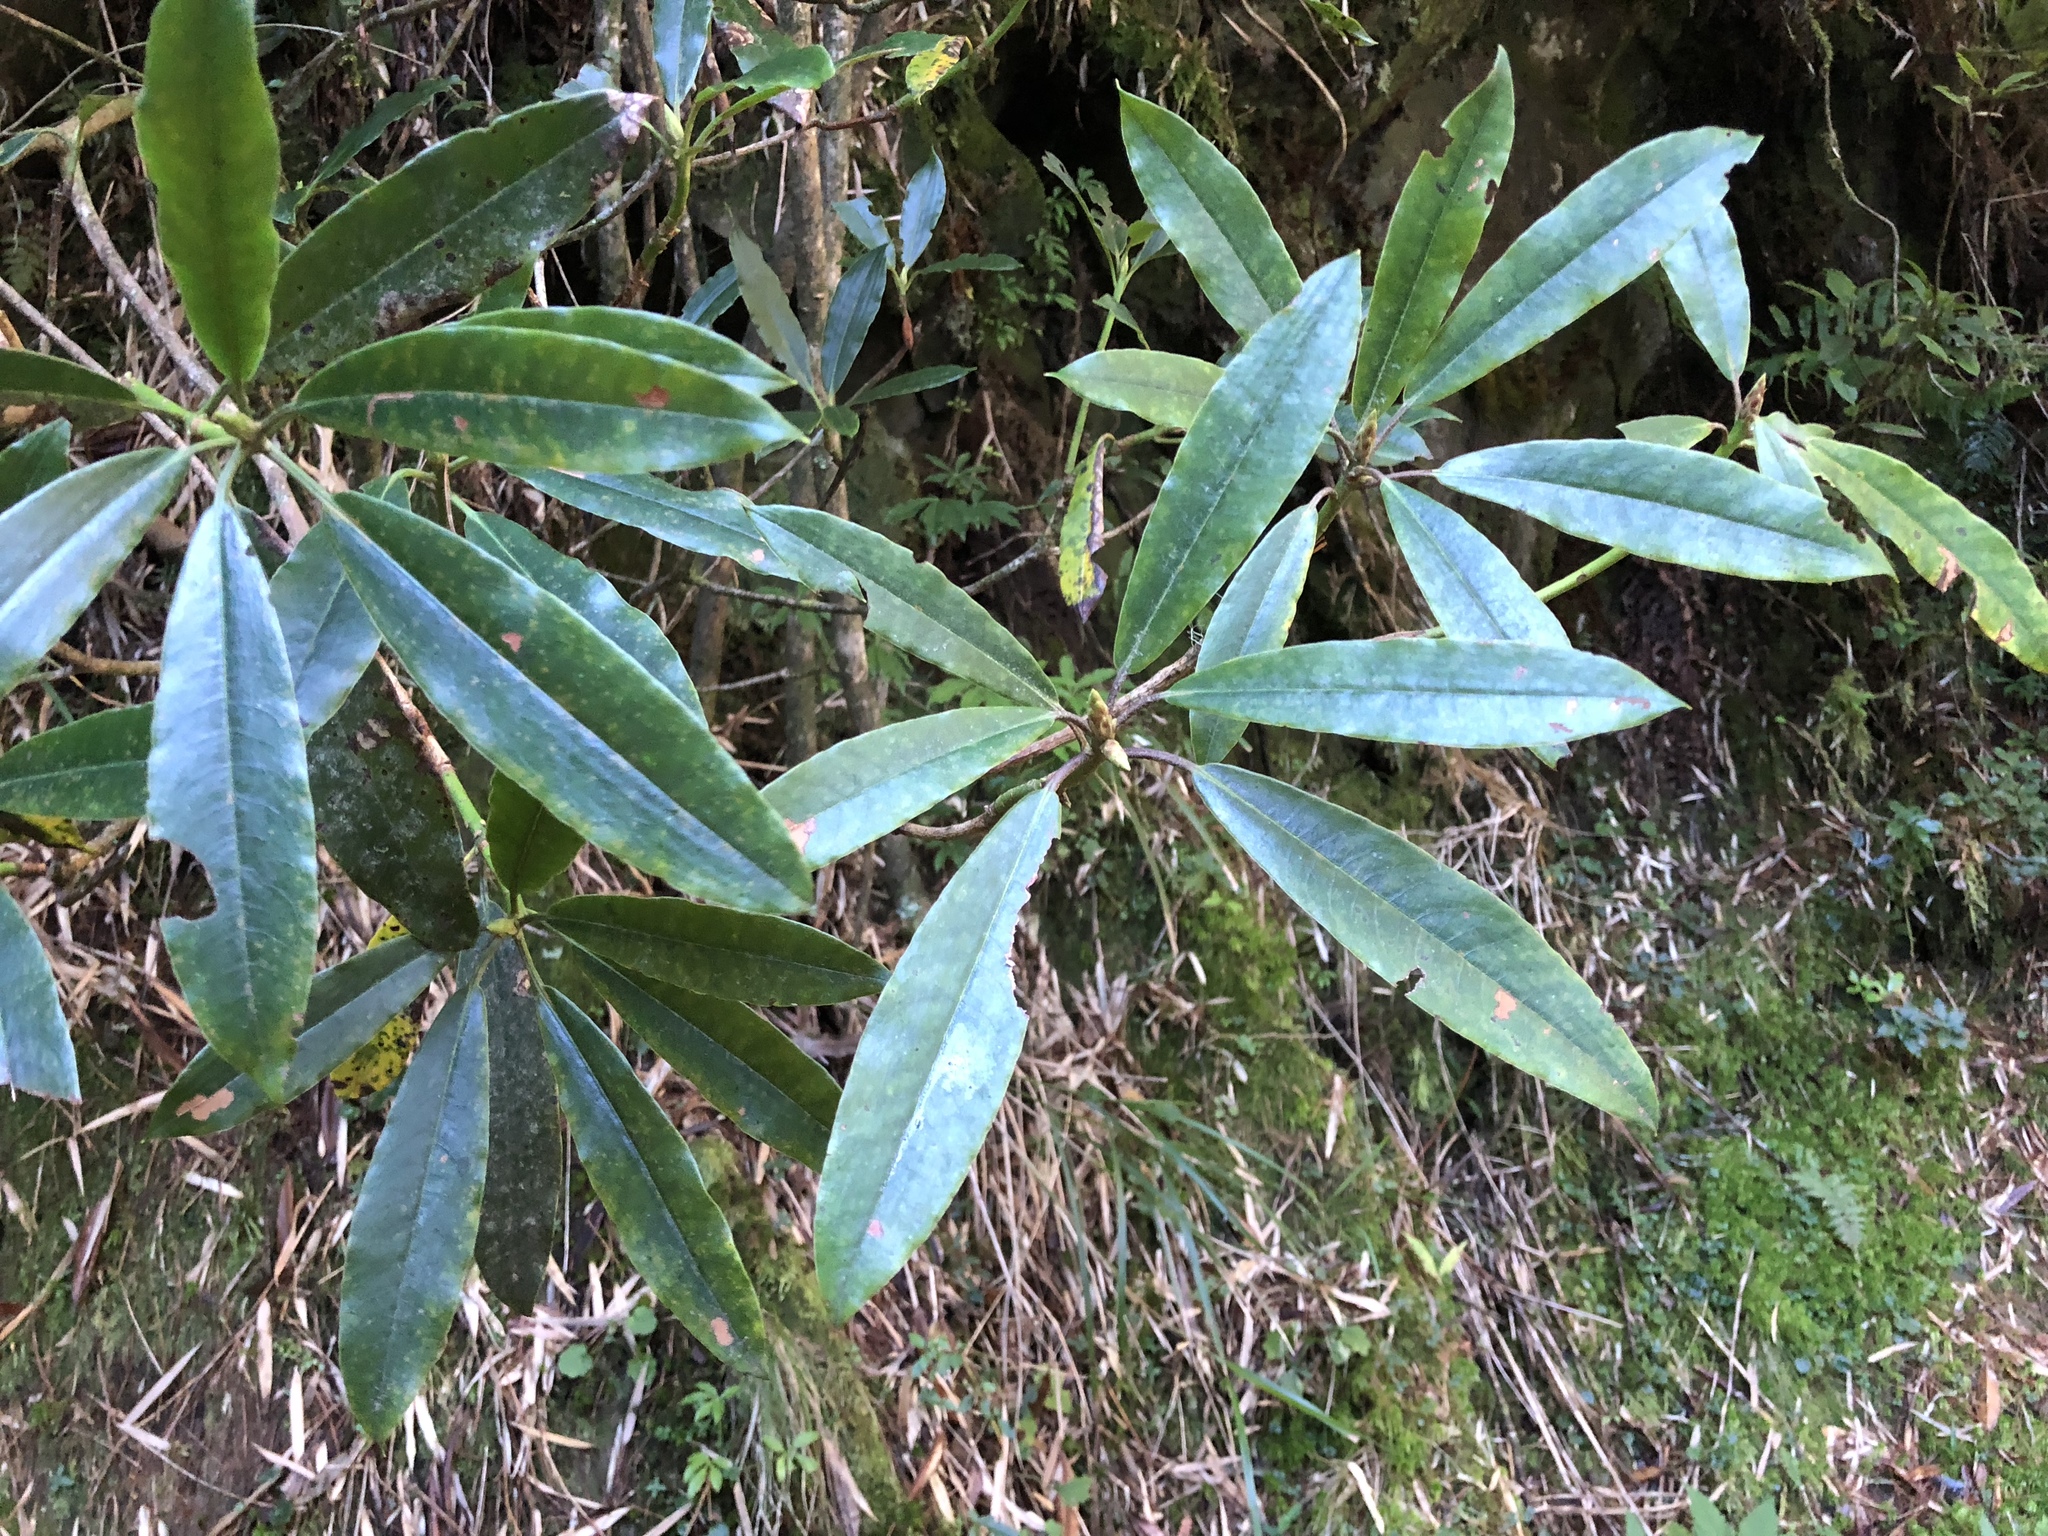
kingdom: Plantae
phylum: Tracheophyta
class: Magnoliopsida
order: Ericales
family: Ericaceae
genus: Rhododendron
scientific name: Rhododendron latoucheae
